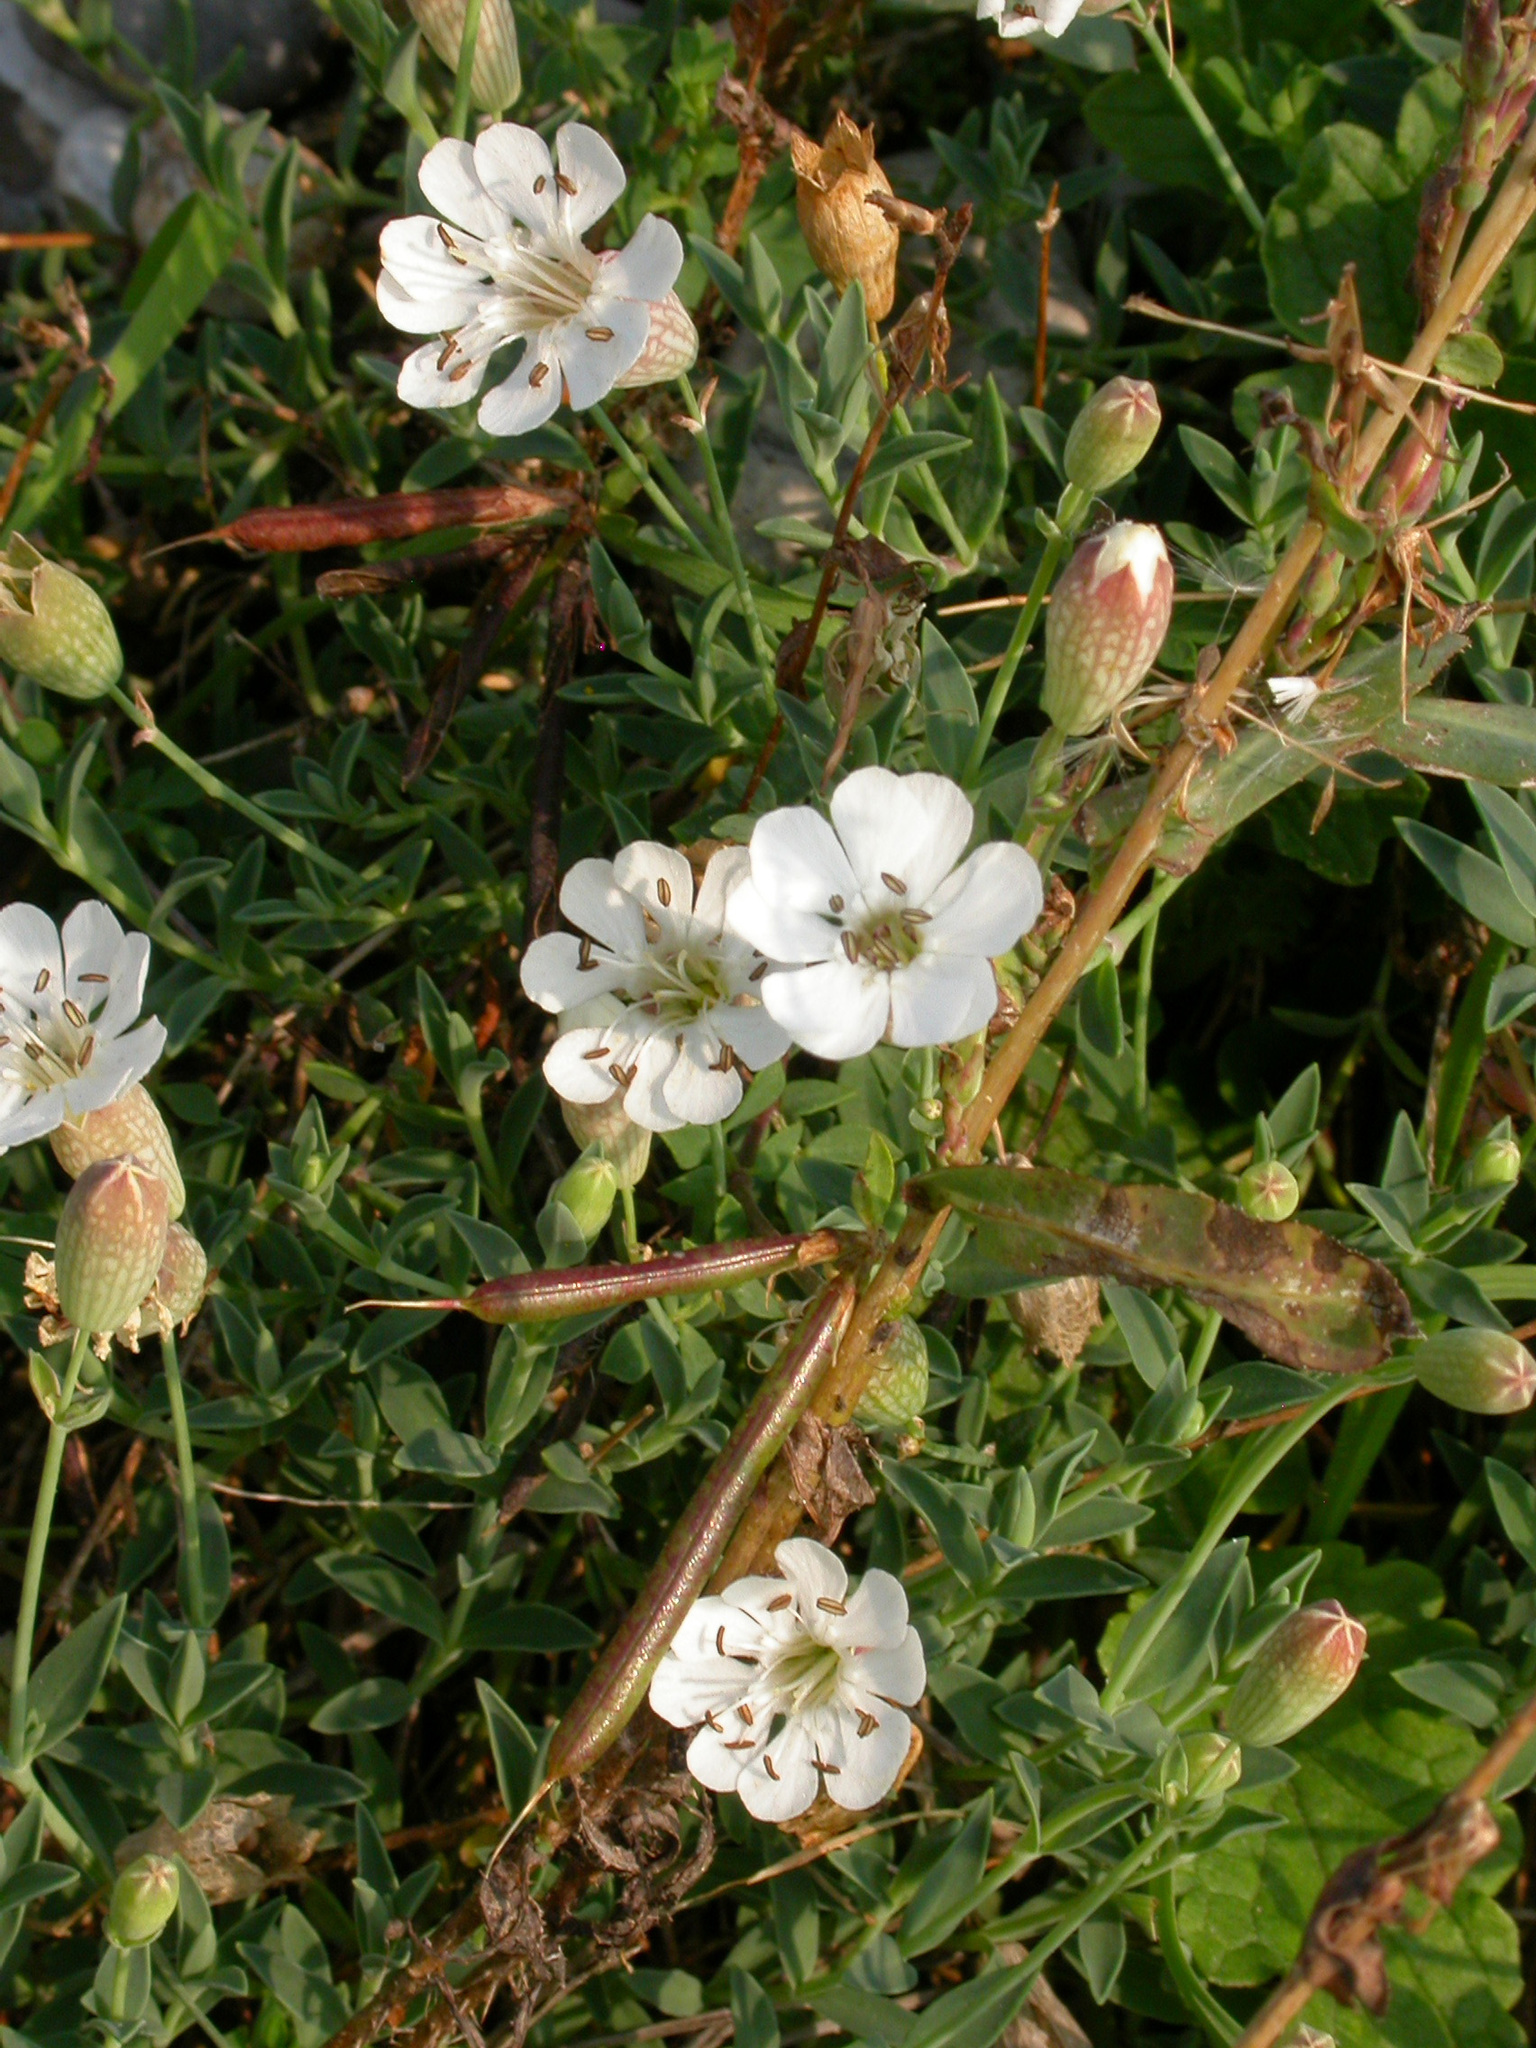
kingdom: Plantae
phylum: Tracheophyta
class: Magnoliopsida
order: Caryophyllales
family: Caryophyllaceae
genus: Silene
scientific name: Silene uniflora
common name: Sea campion
